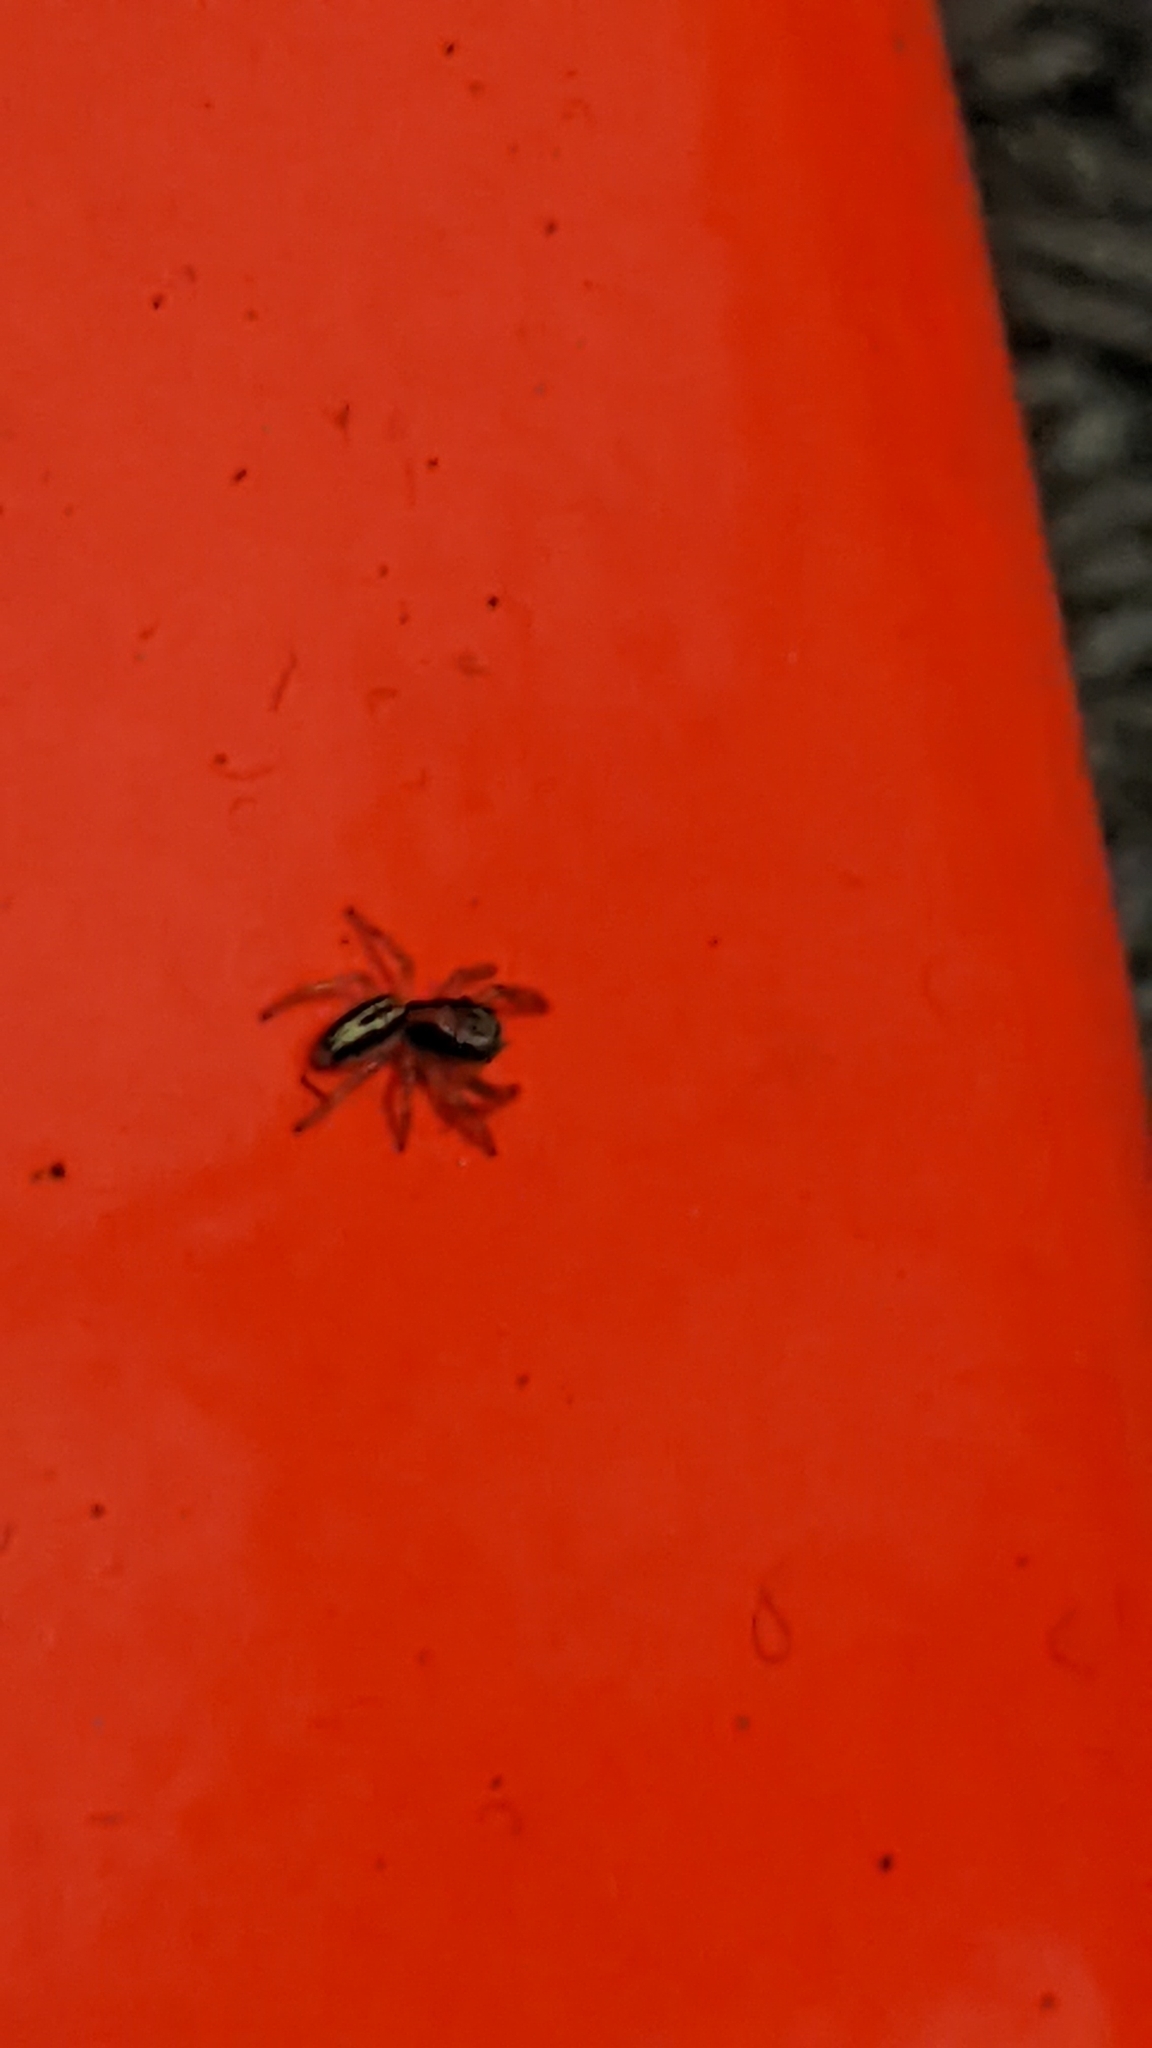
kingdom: Animalia
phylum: Arthropoda
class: Arachnida
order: Araneae
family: Salticidae
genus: Trite
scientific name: Trite planiceps
